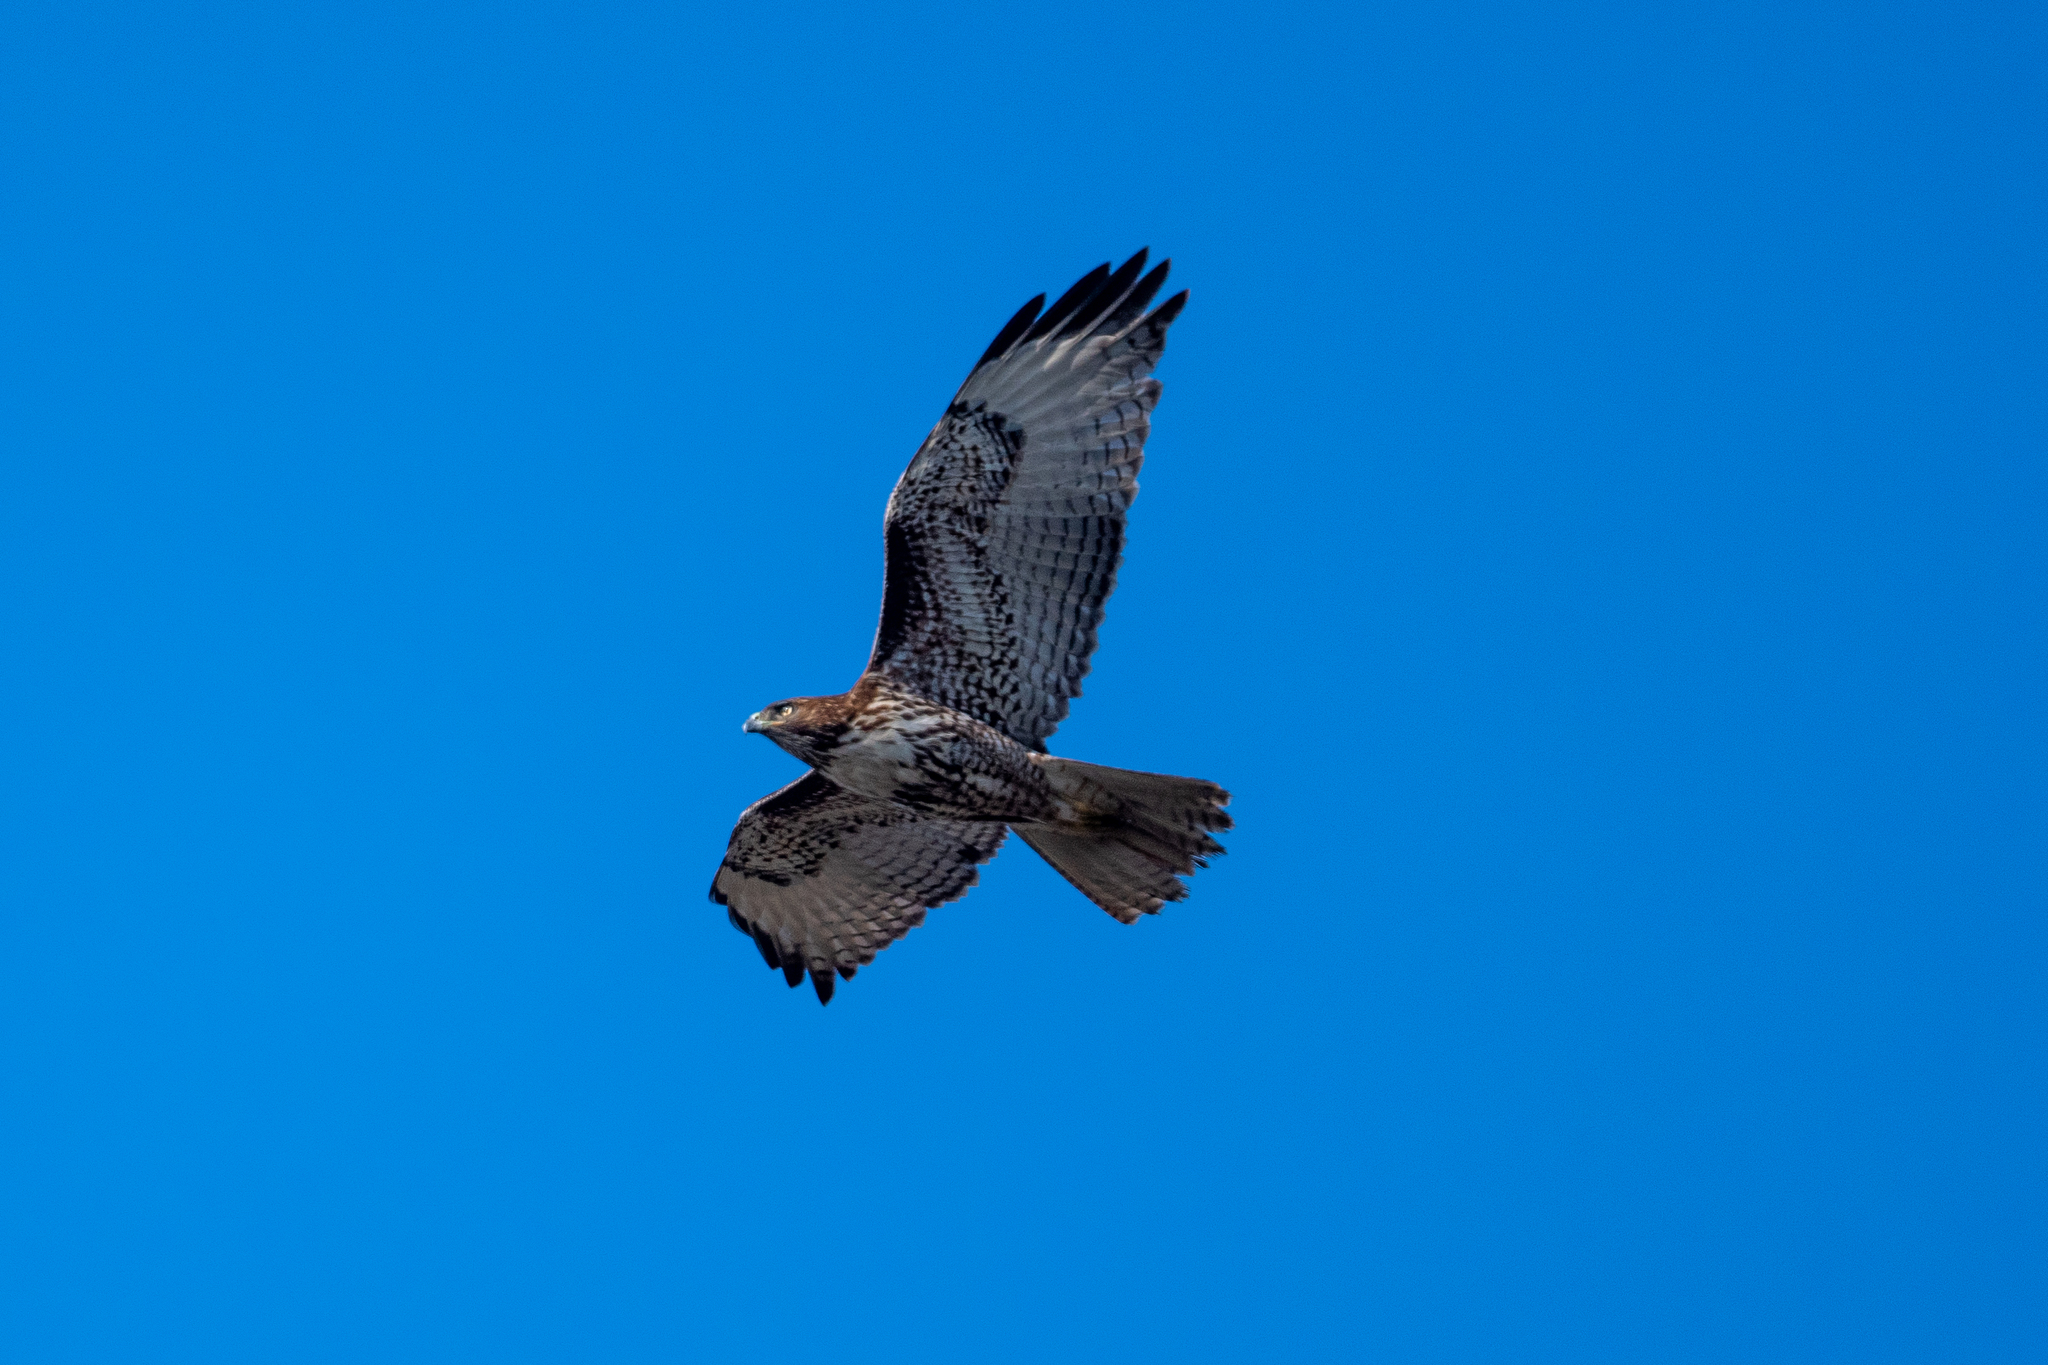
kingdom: Animalia
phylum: Chordata
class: Aves
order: Accipitriformes
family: Accipitridae
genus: Buteo
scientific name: Buteo jamaicensis
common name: Red-tailed hawk
